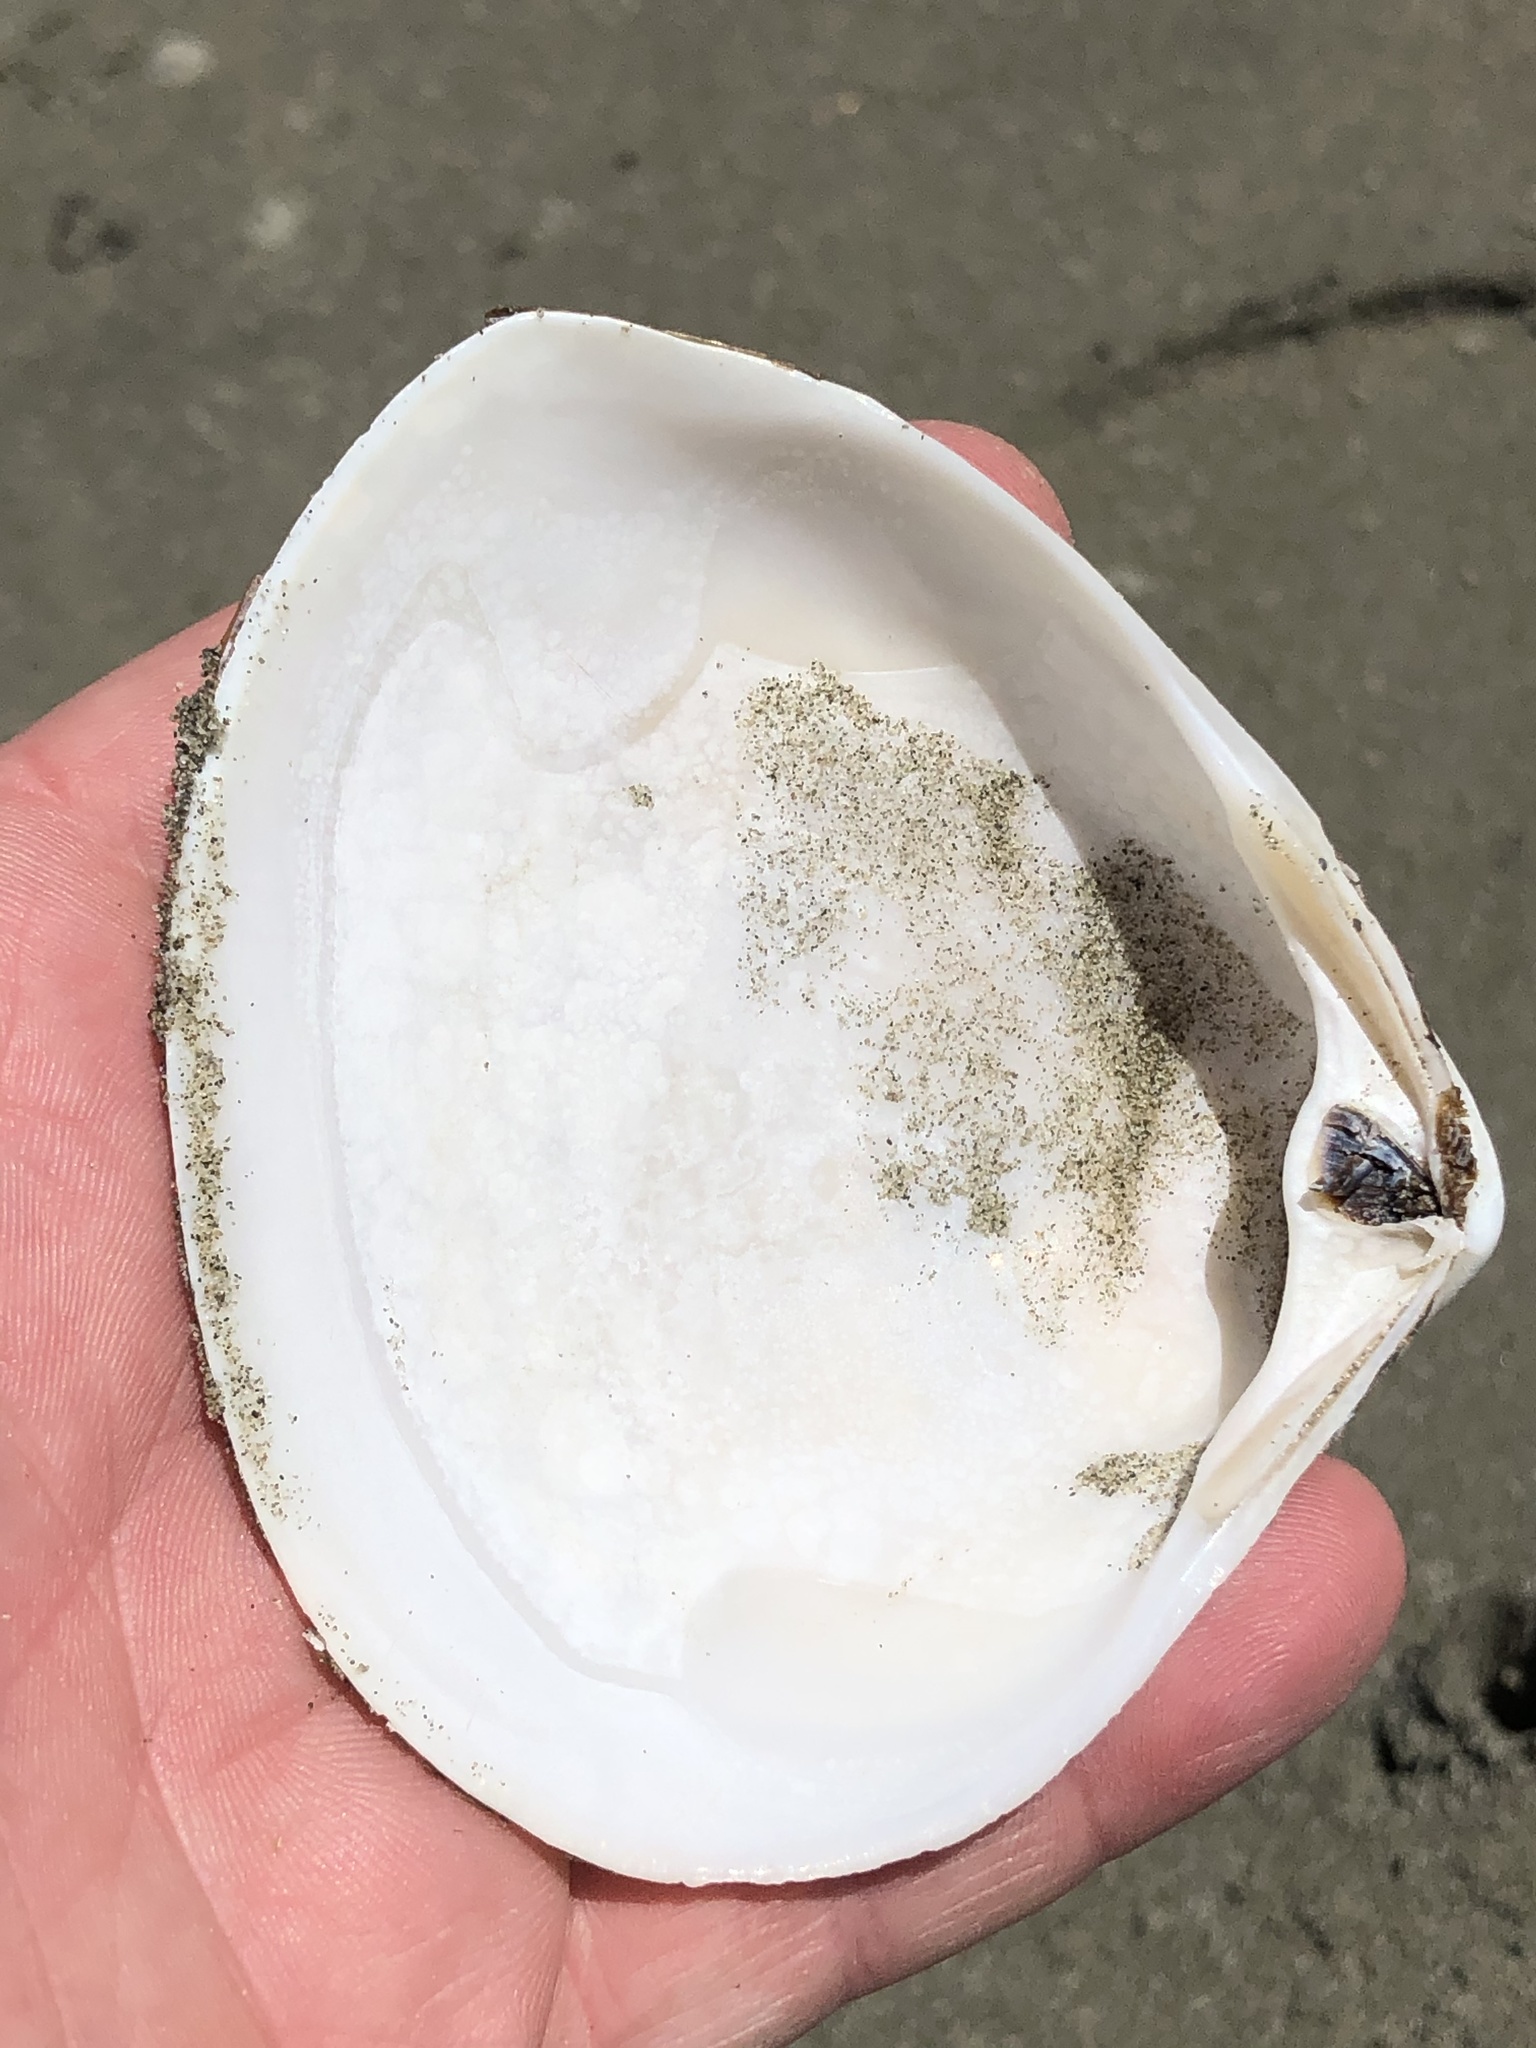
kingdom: Animalia
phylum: Mollusca
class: Bivalvia
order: Venerida
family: Mactridae
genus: Spisula
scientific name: Spisula discors
